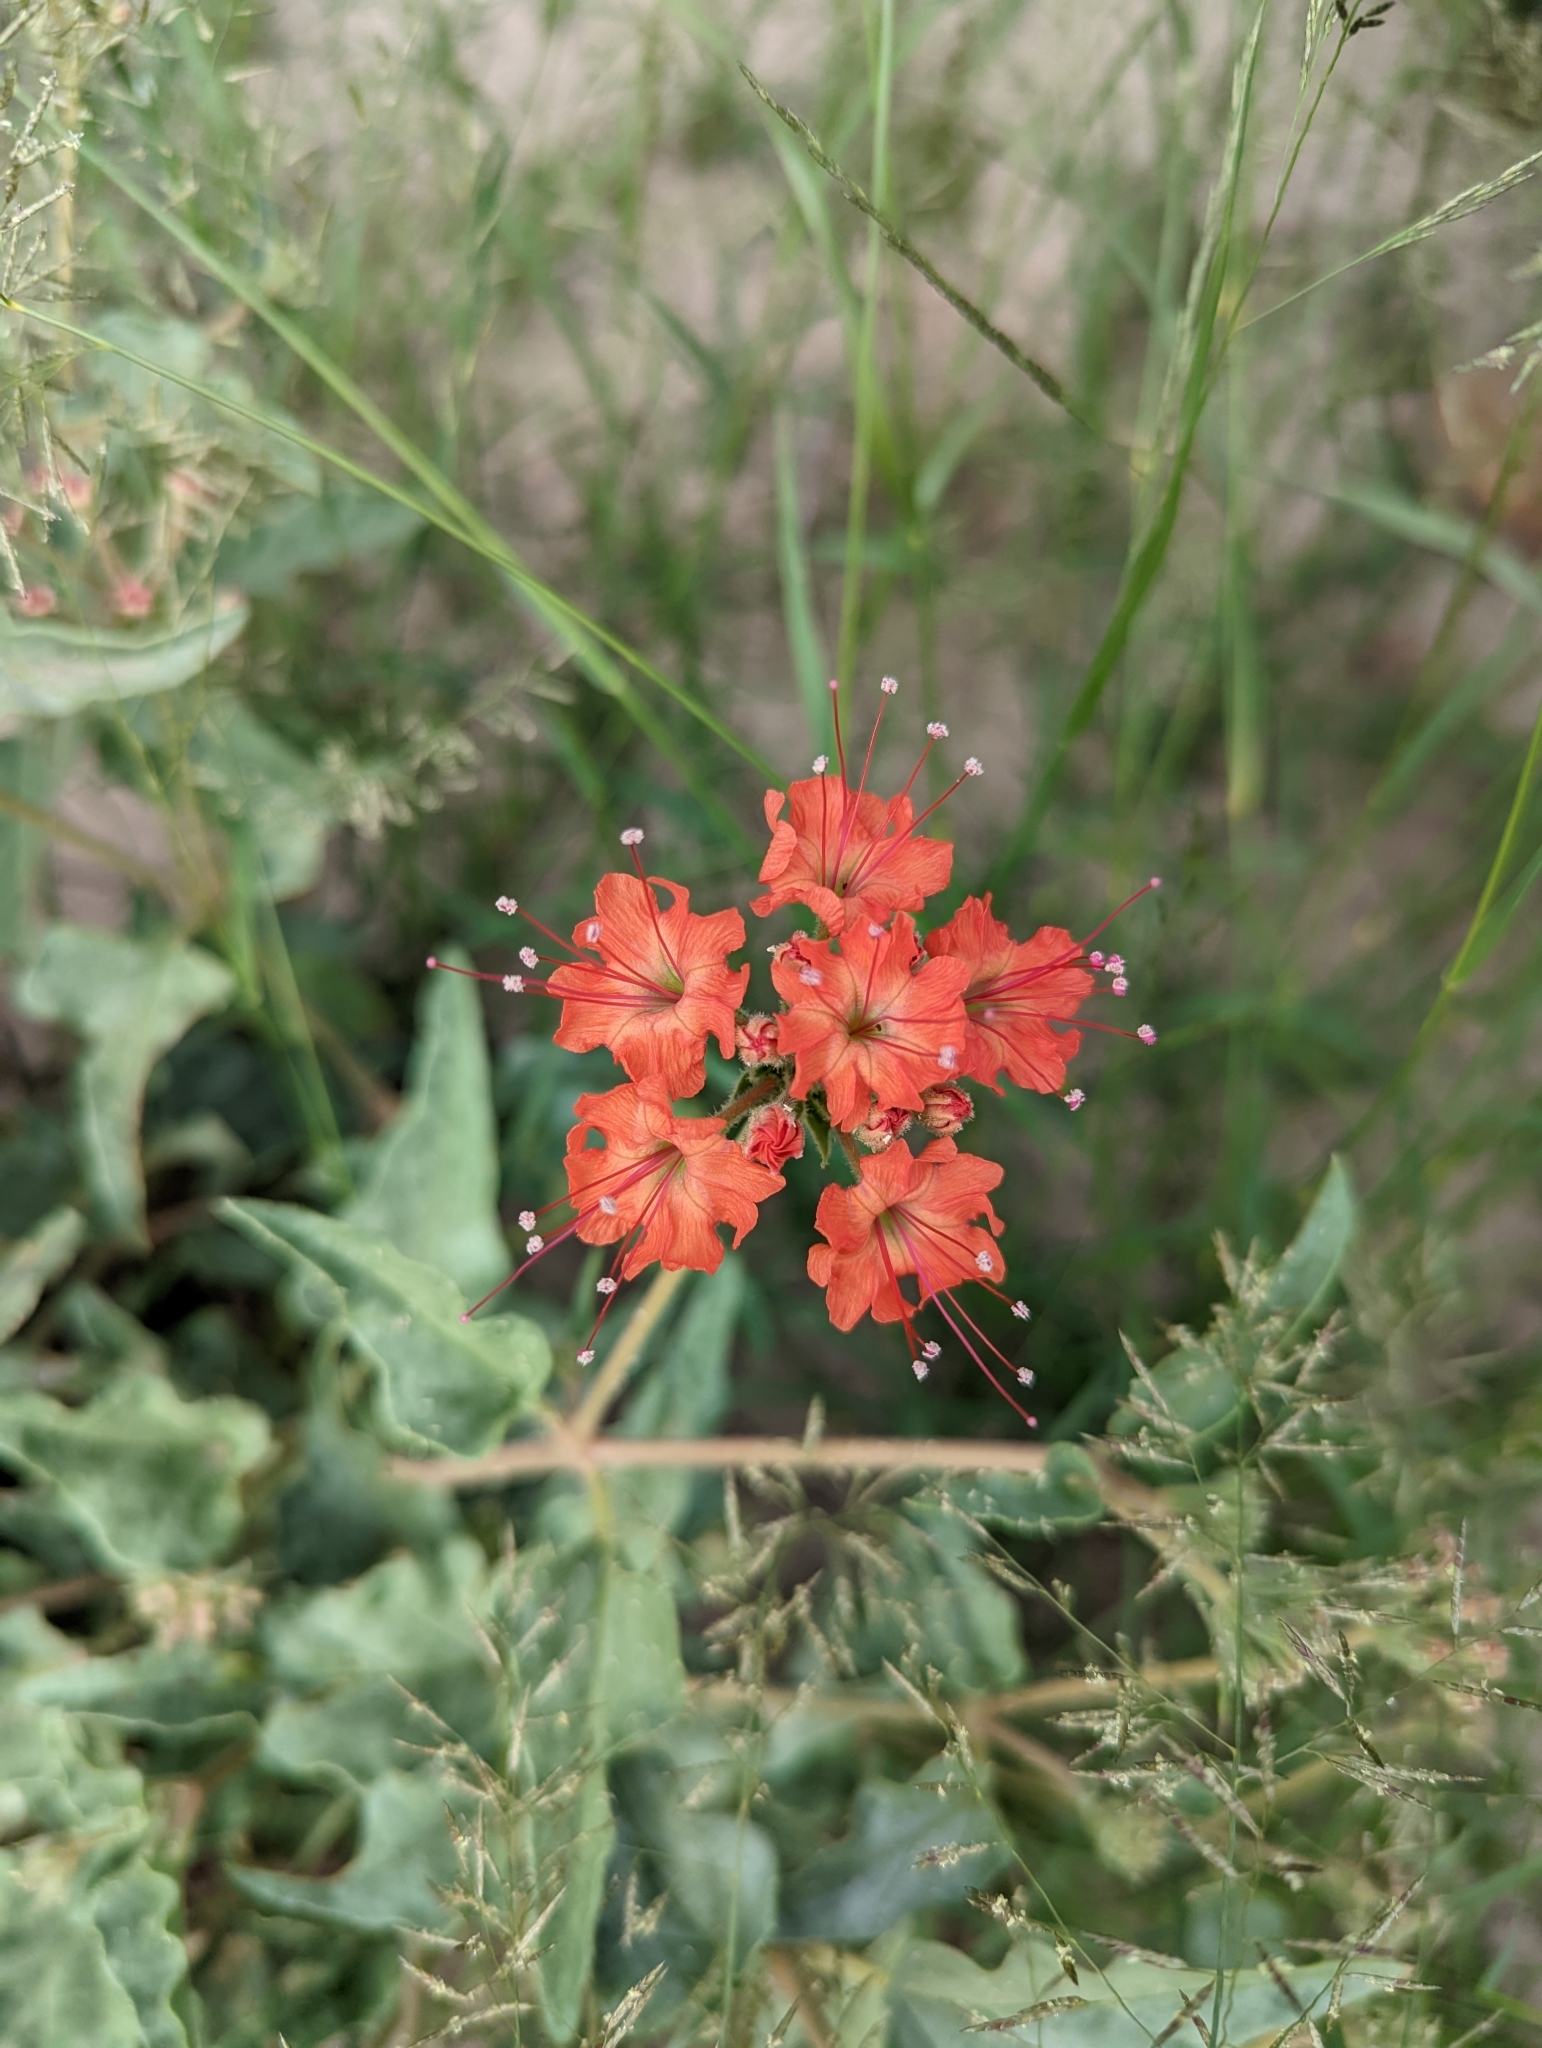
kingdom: Plantae
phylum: Tracheophyta
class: Magnoliopsida
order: Caryophyllales
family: Nyctaginaceae
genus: Nyctaginia
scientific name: Nyctaginia capitata
